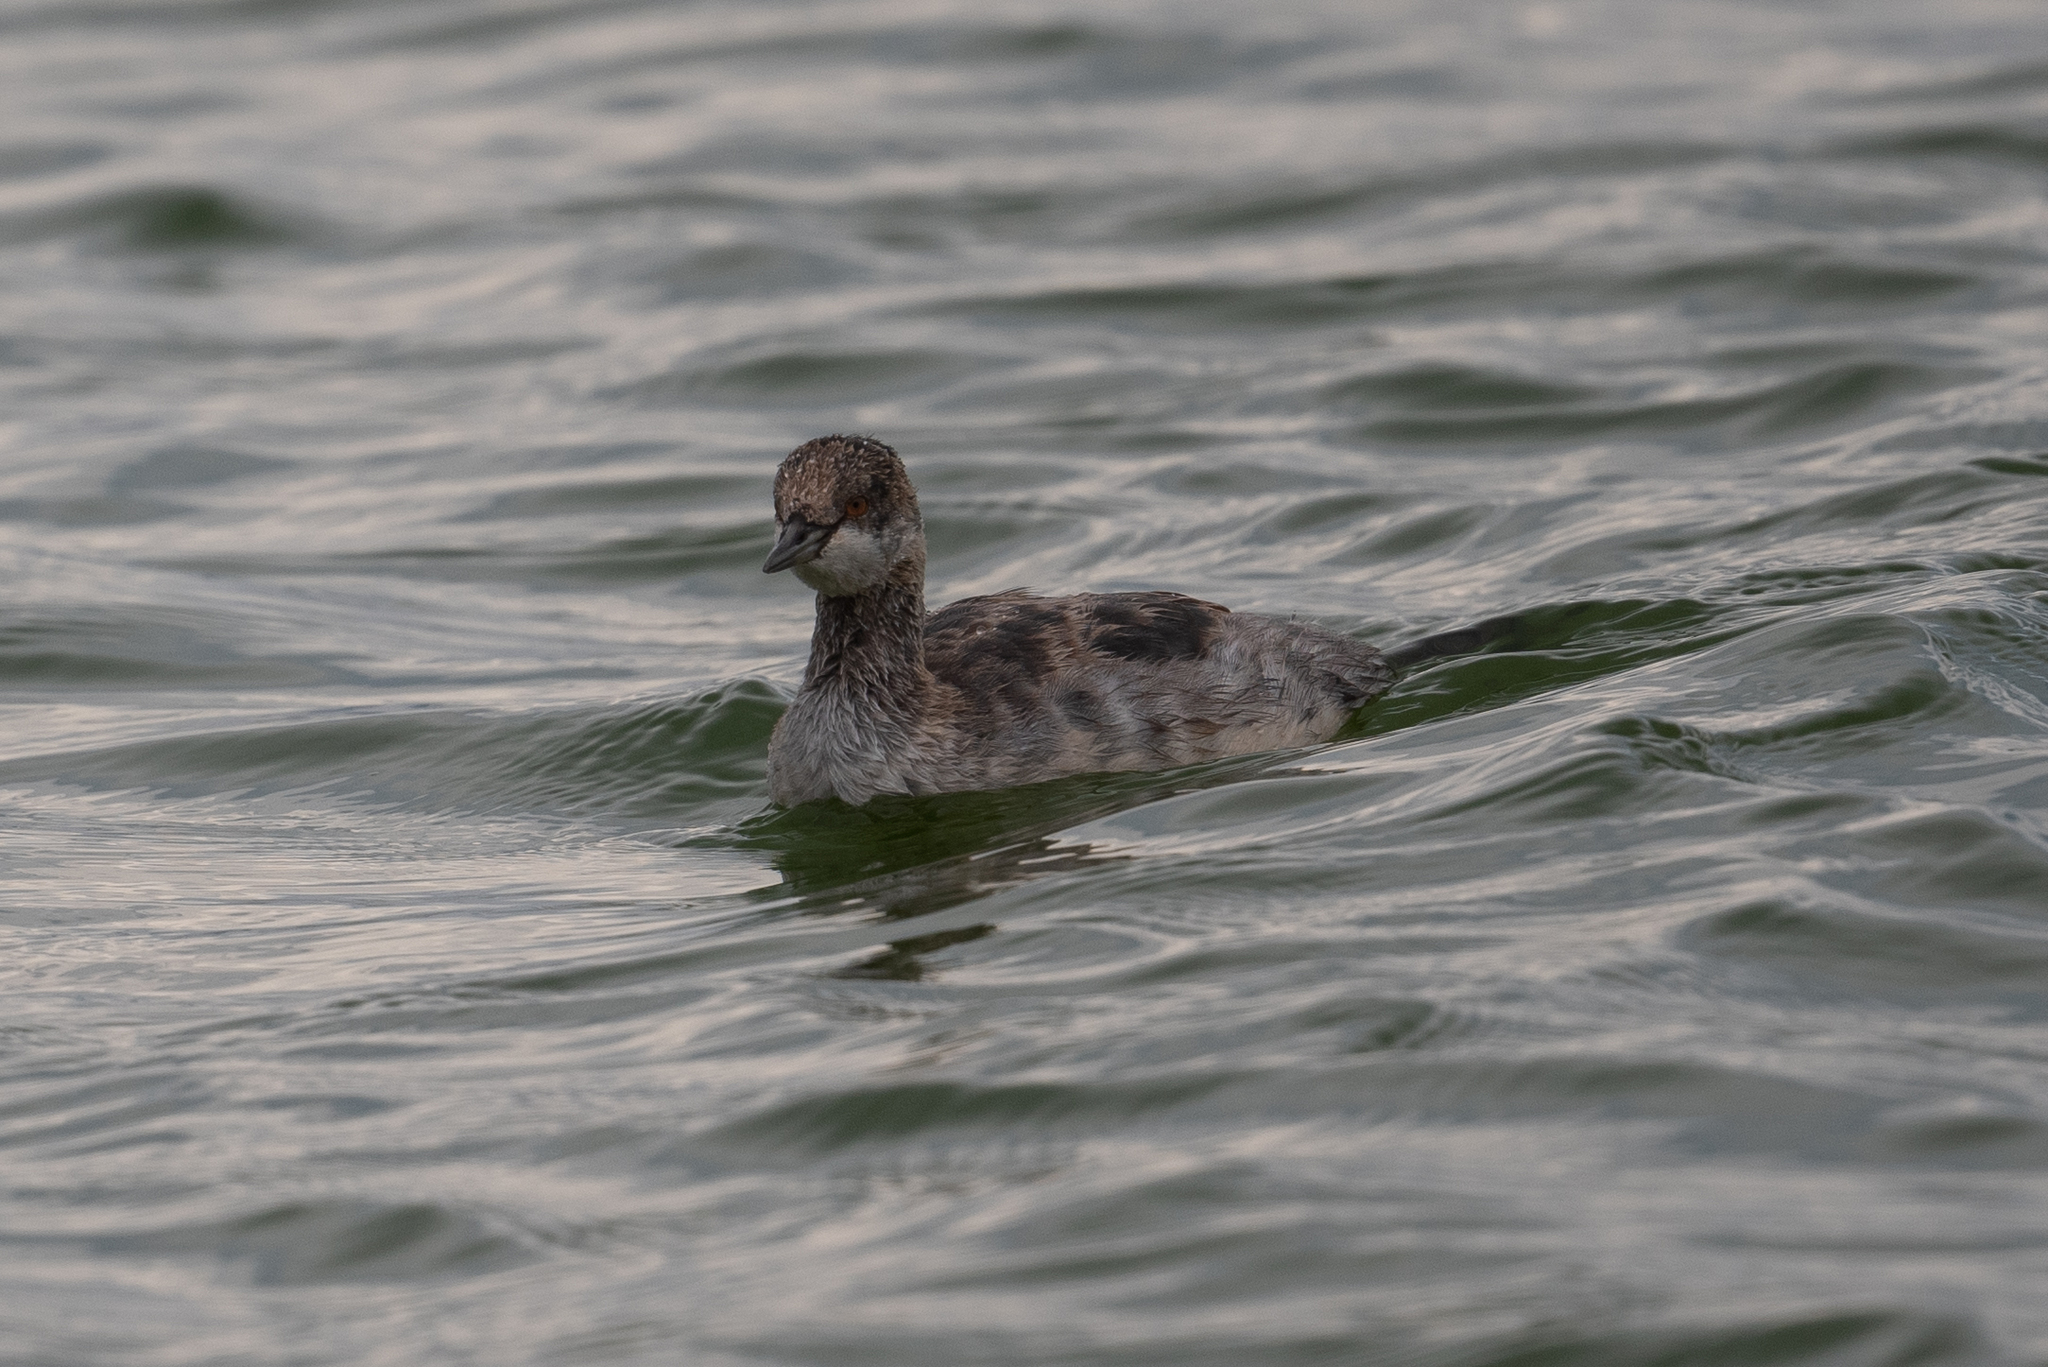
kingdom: Animalia
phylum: Chordata
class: Aves
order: Podicipediformes
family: Podicipedidae
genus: Podiceps
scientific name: Podiceps nigricollis
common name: Black-necked grebe
